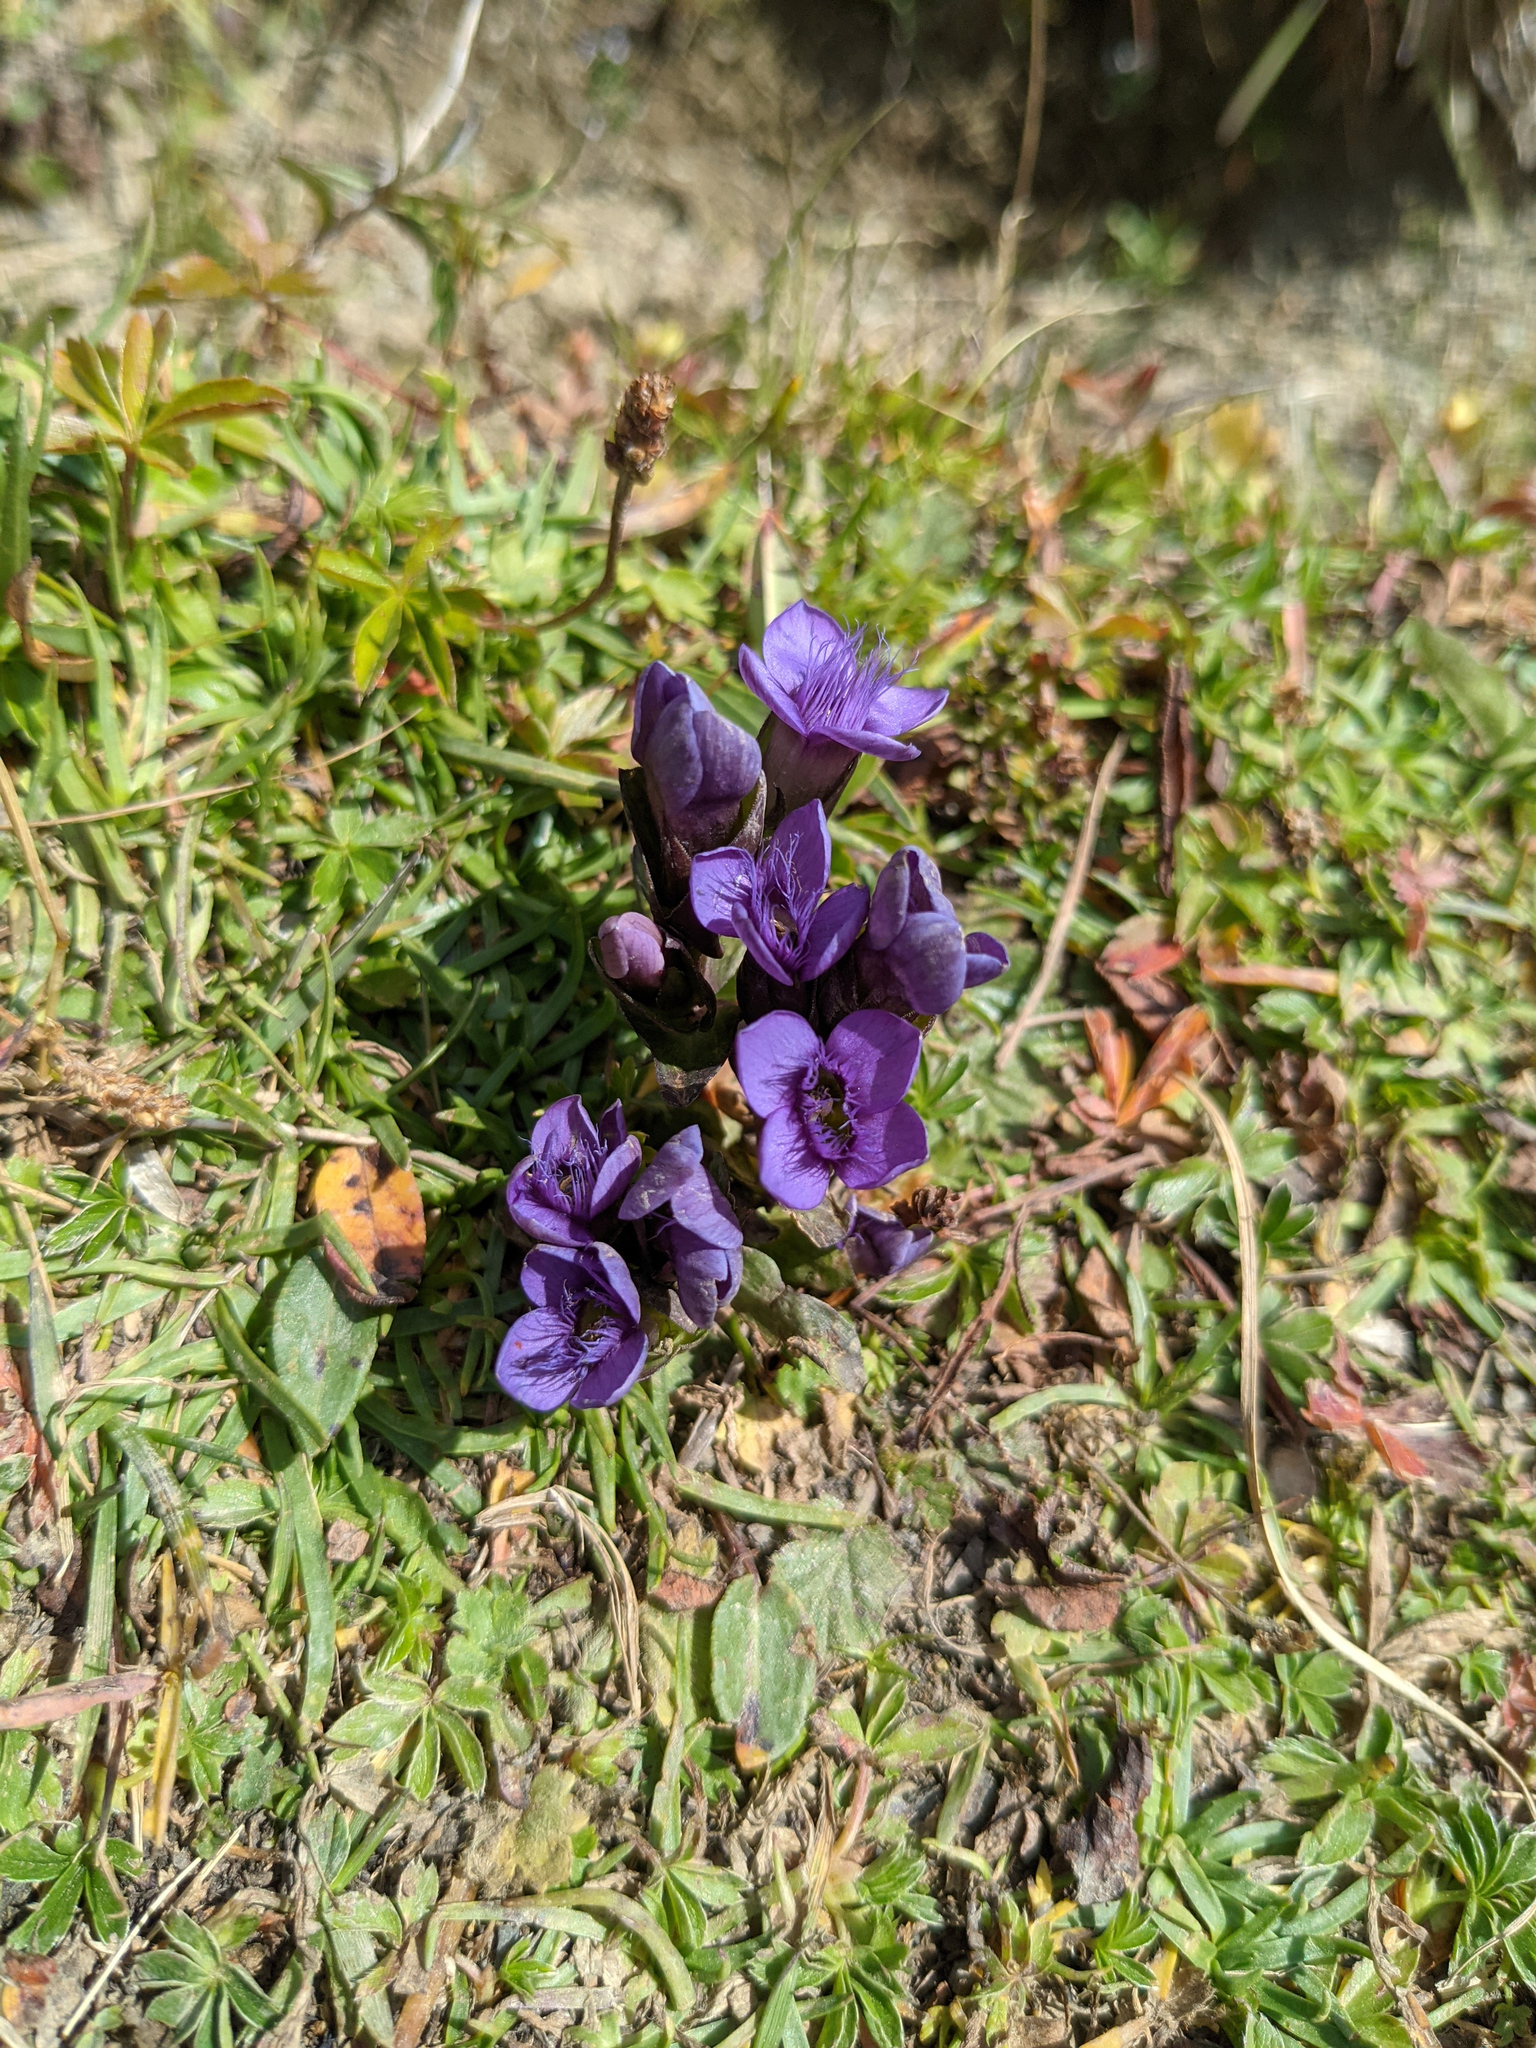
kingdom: Plantae
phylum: Tracheophyta
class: Magnoliopsida
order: Gentianales
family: Gentianaceae
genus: Gentianella
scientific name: Gentianella campestris
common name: Field gentian
